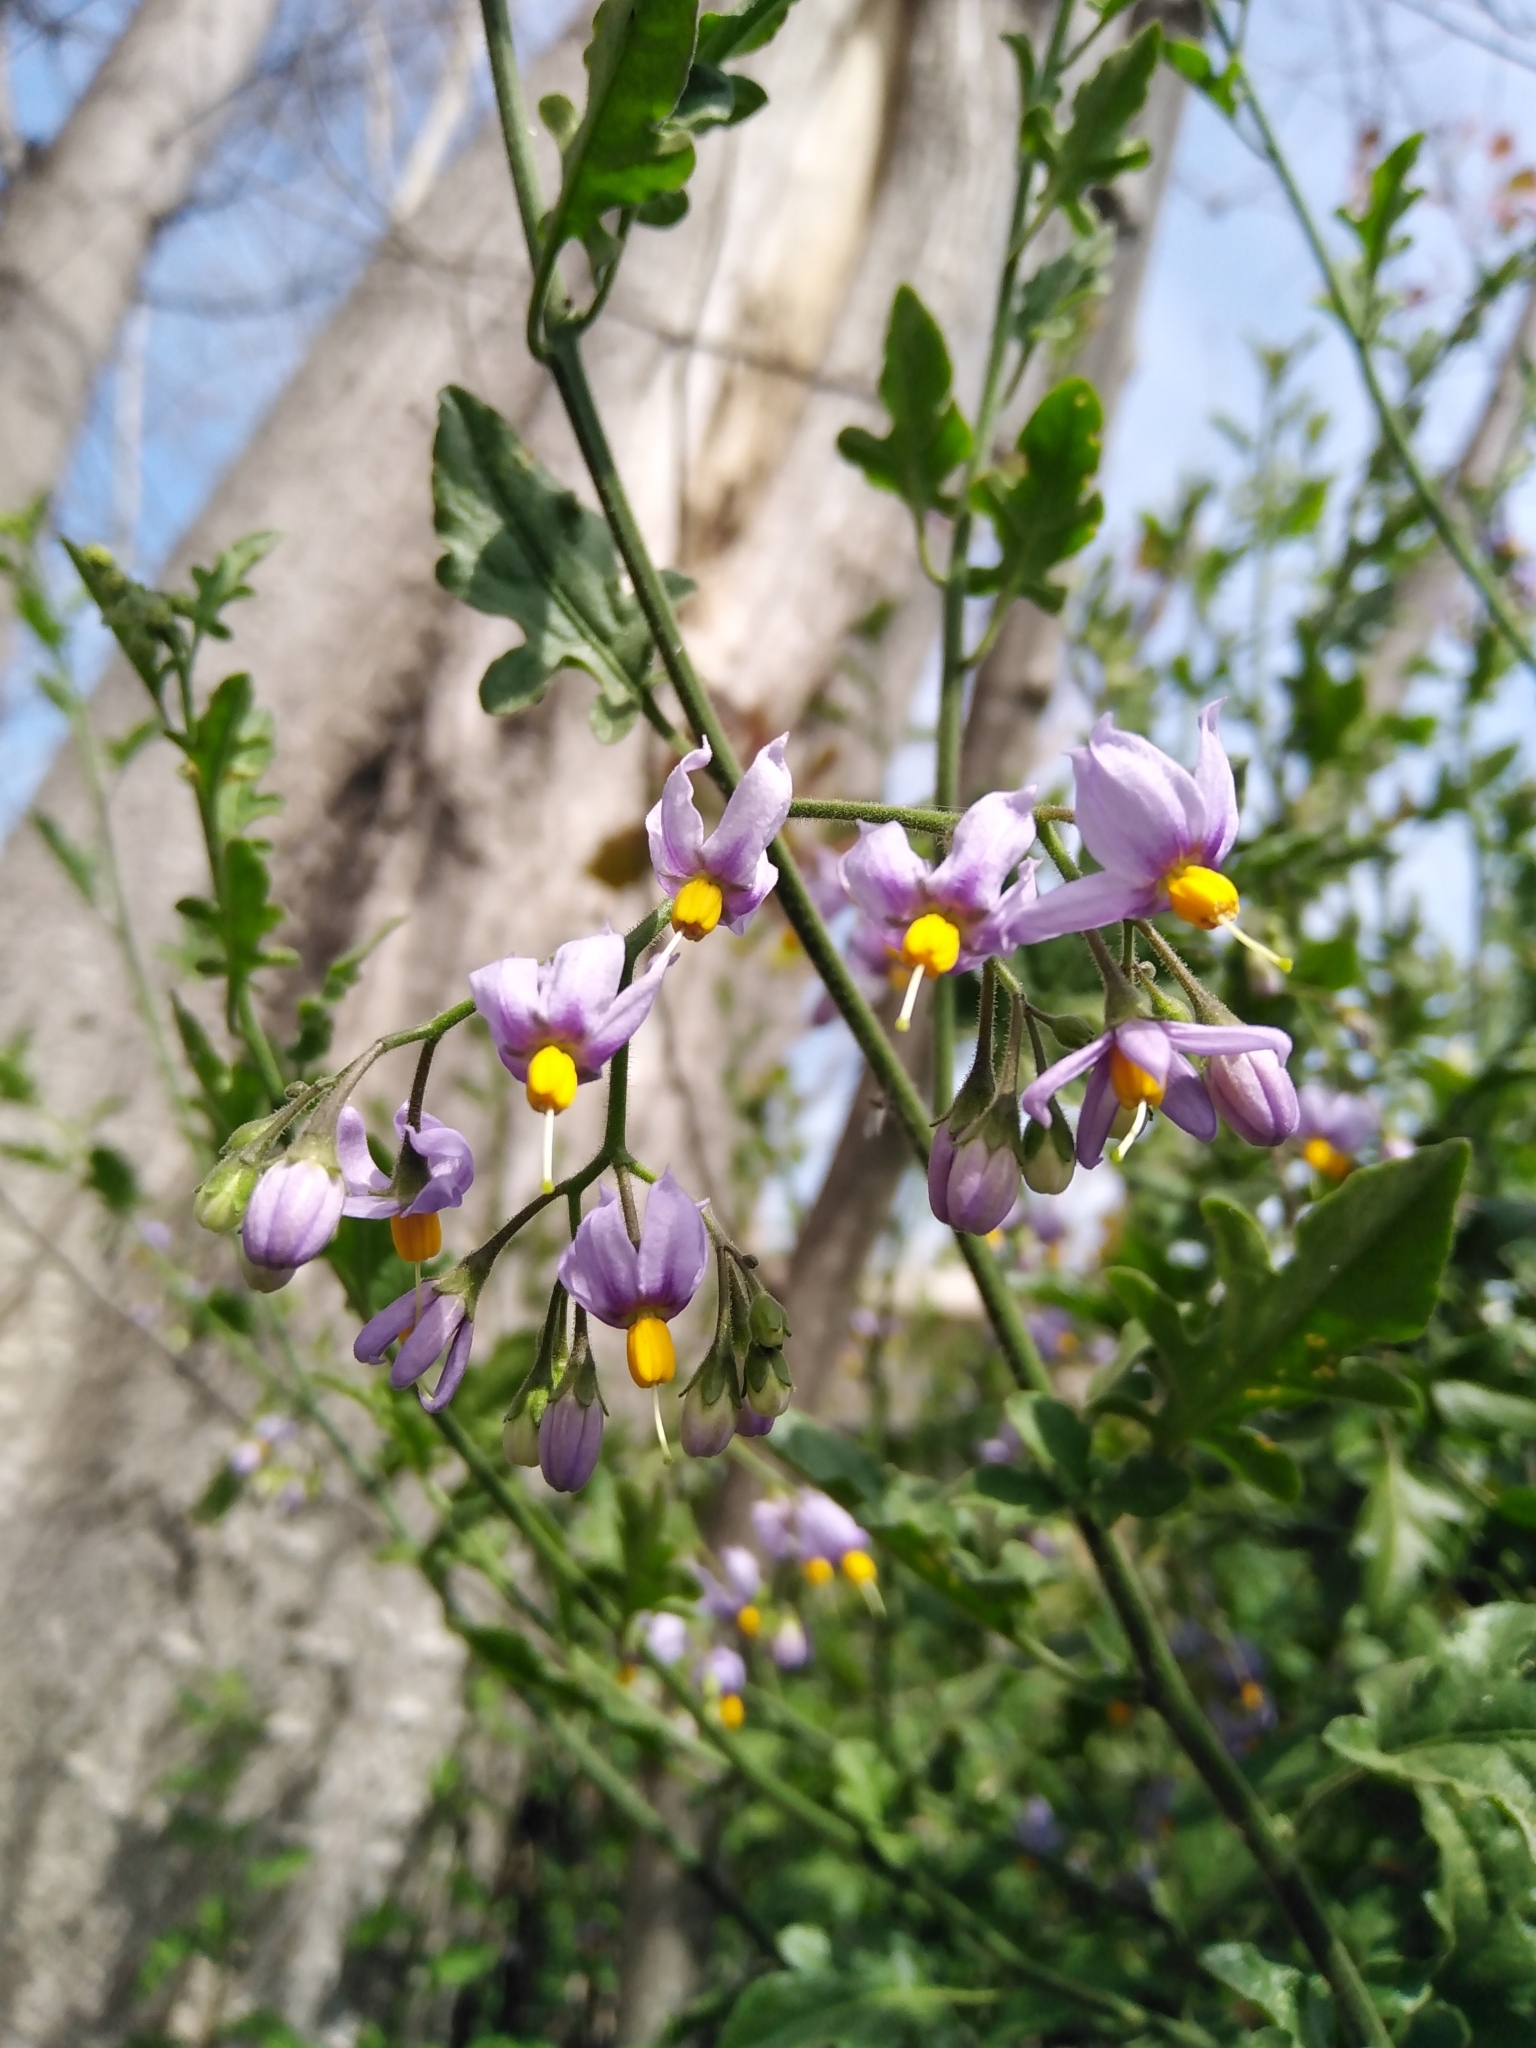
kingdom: Plantae
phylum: Tracheophyta
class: Magnoliopsida
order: Solanales
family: Solanaceae
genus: Solanum
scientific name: Solanum alphonsi
